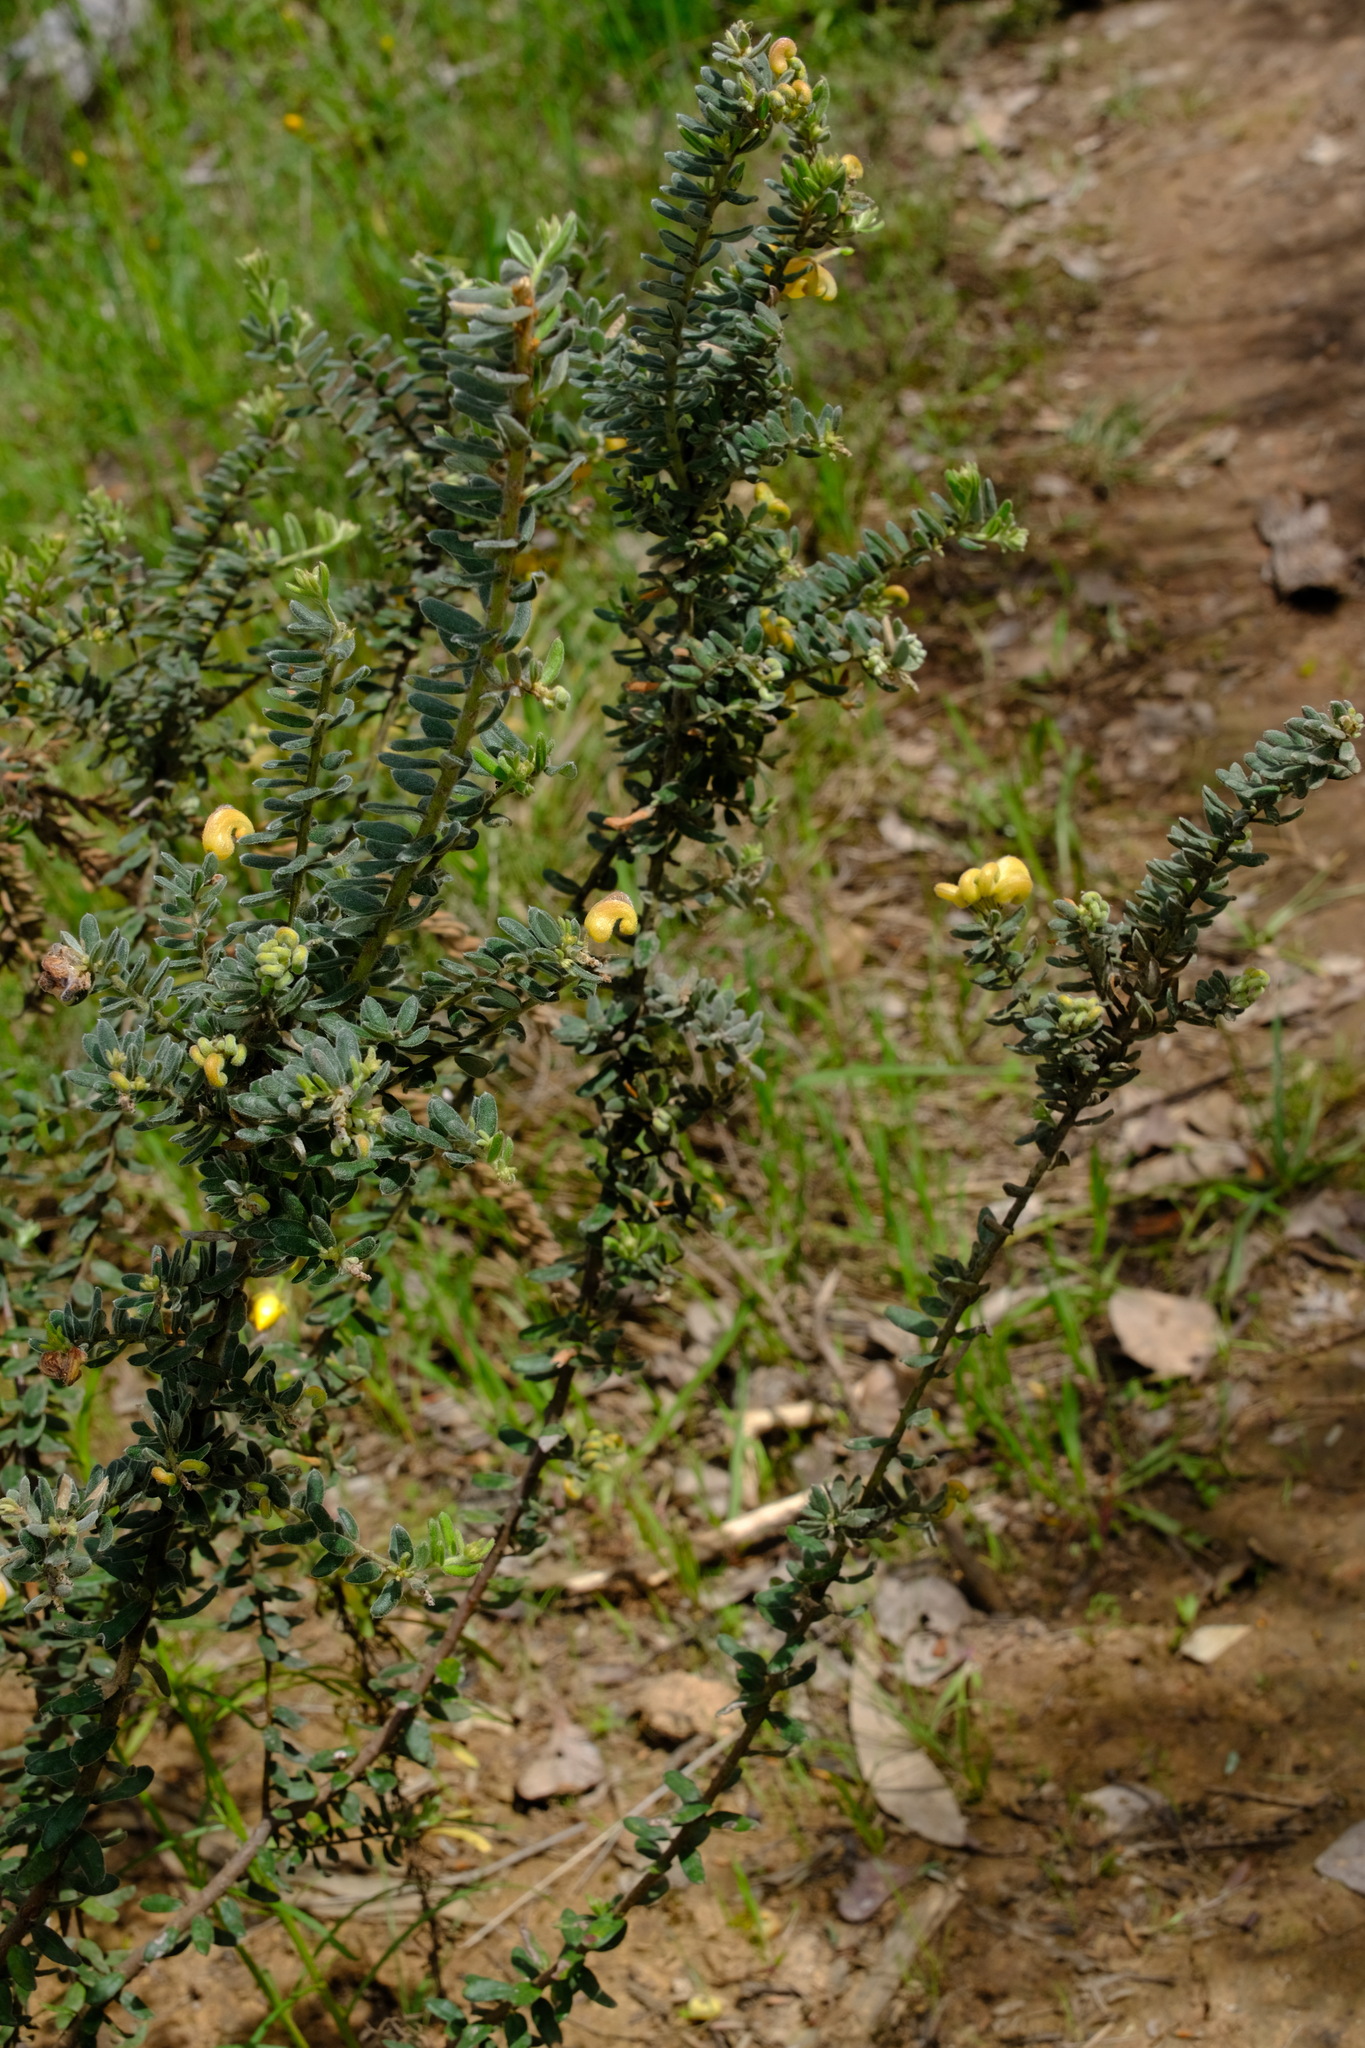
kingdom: Plantae
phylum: Tracheophyta
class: Magnoliopsida
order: Proteales
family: Proteaceae
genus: Grevillea
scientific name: Grevillea alpina
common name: Catclaws grevillea
